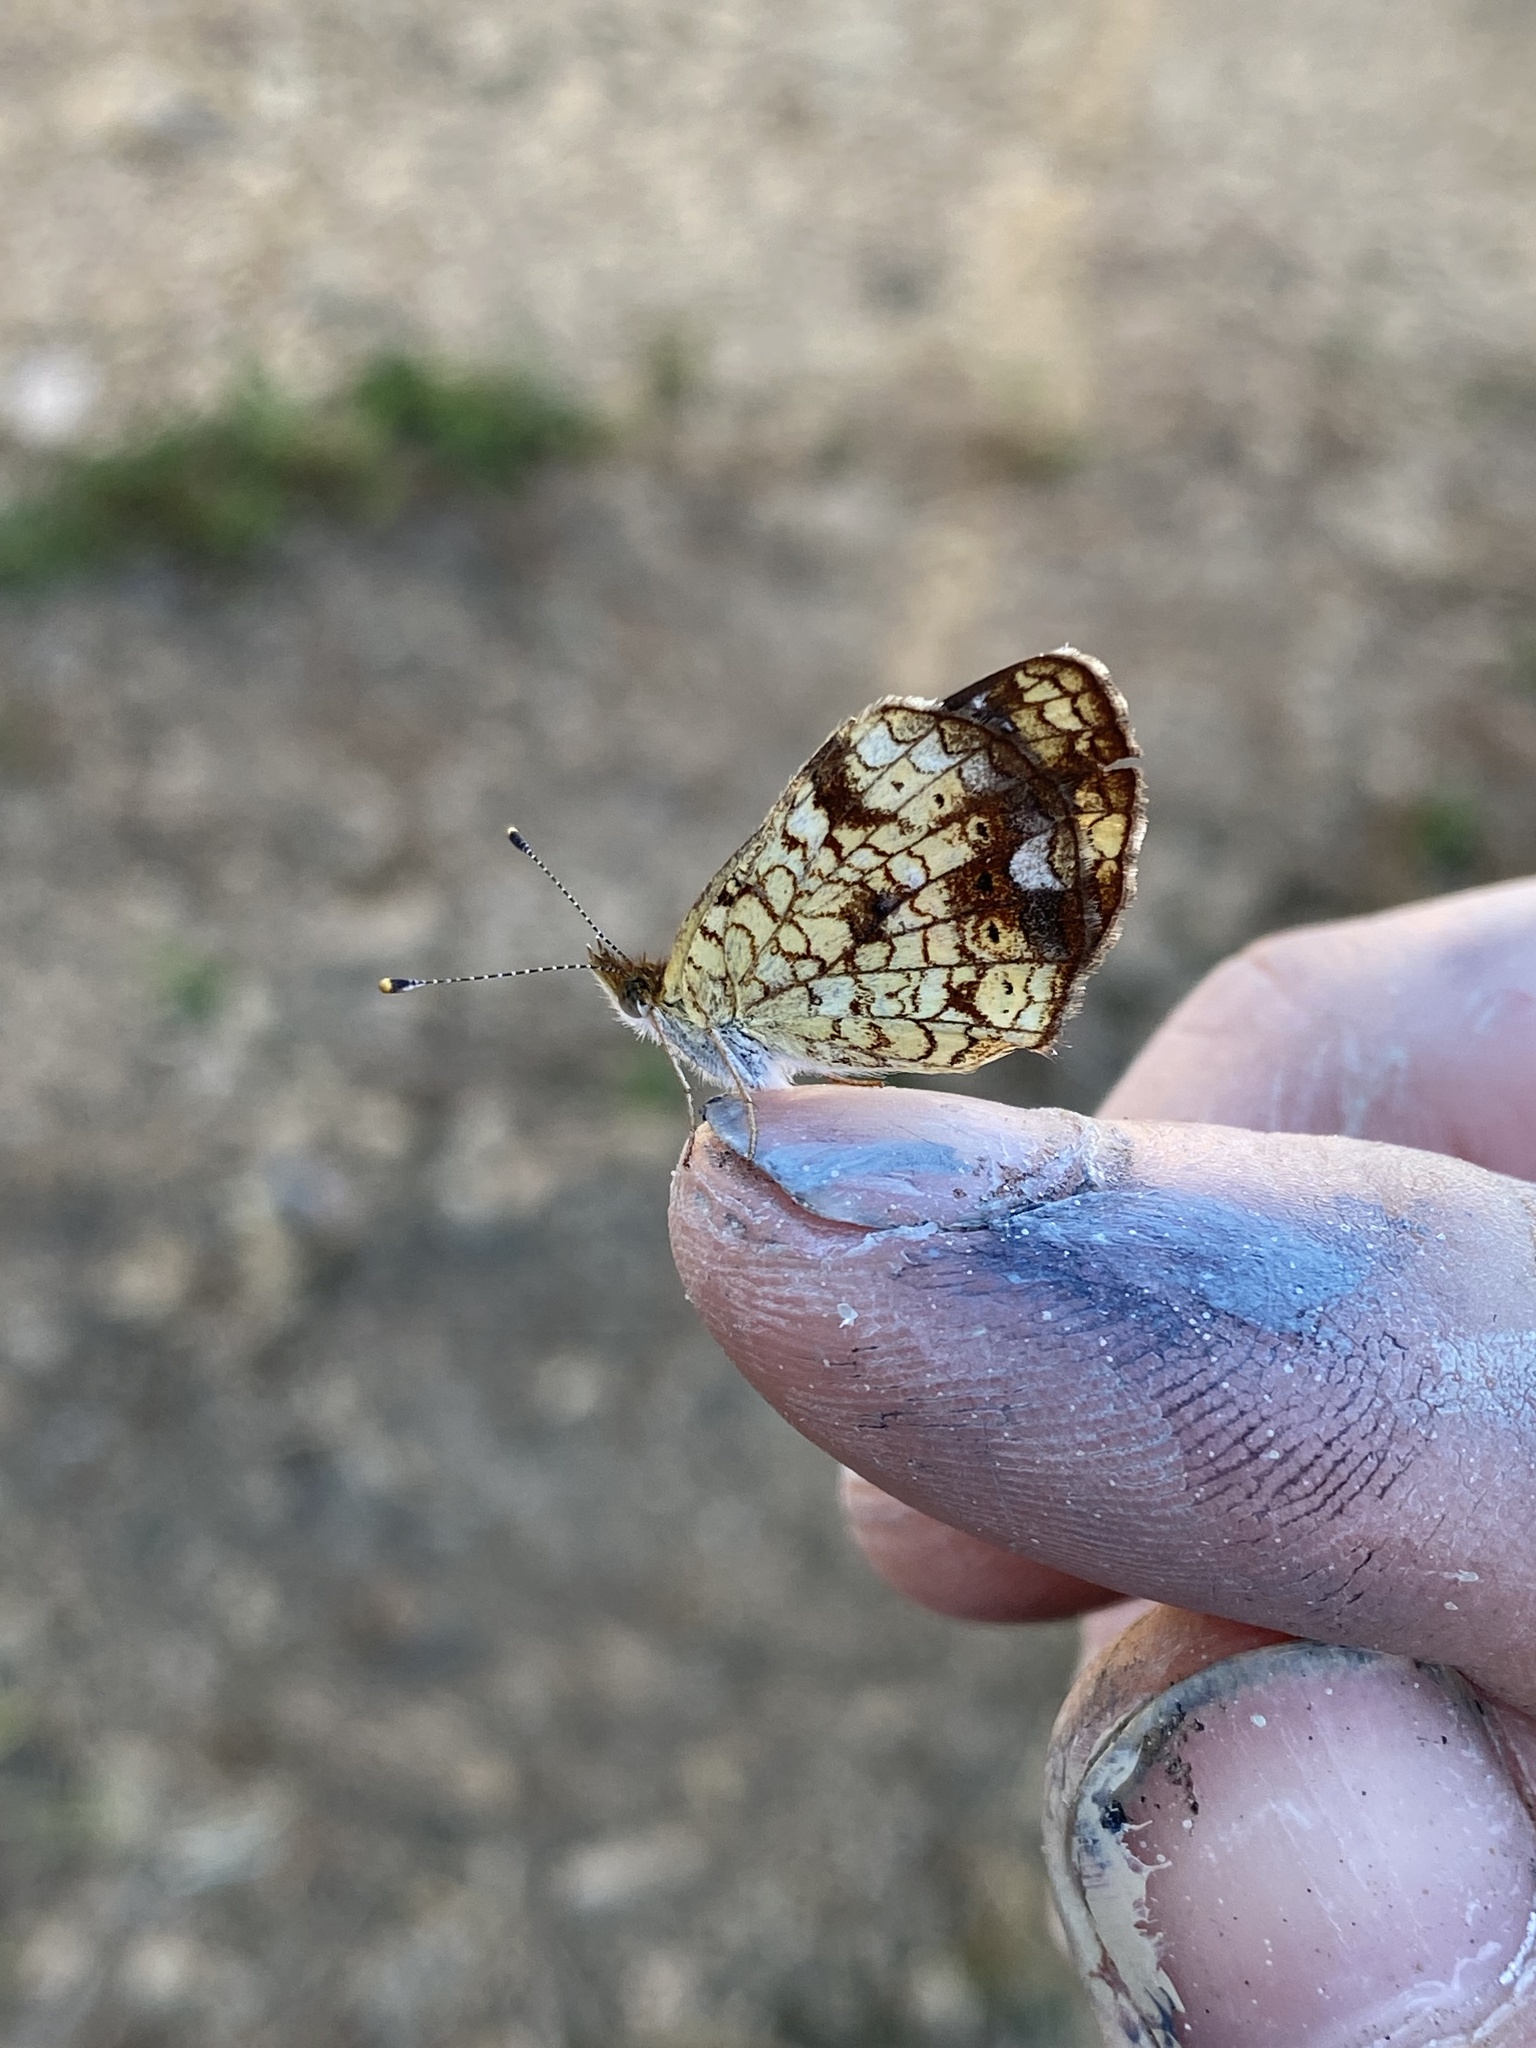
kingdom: Animalia
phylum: Arthropoda
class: Insecta
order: Lepidoptera
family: Nymphalidae
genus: Phyciodes
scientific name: Phyciodes tharos
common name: Pearl crescent
